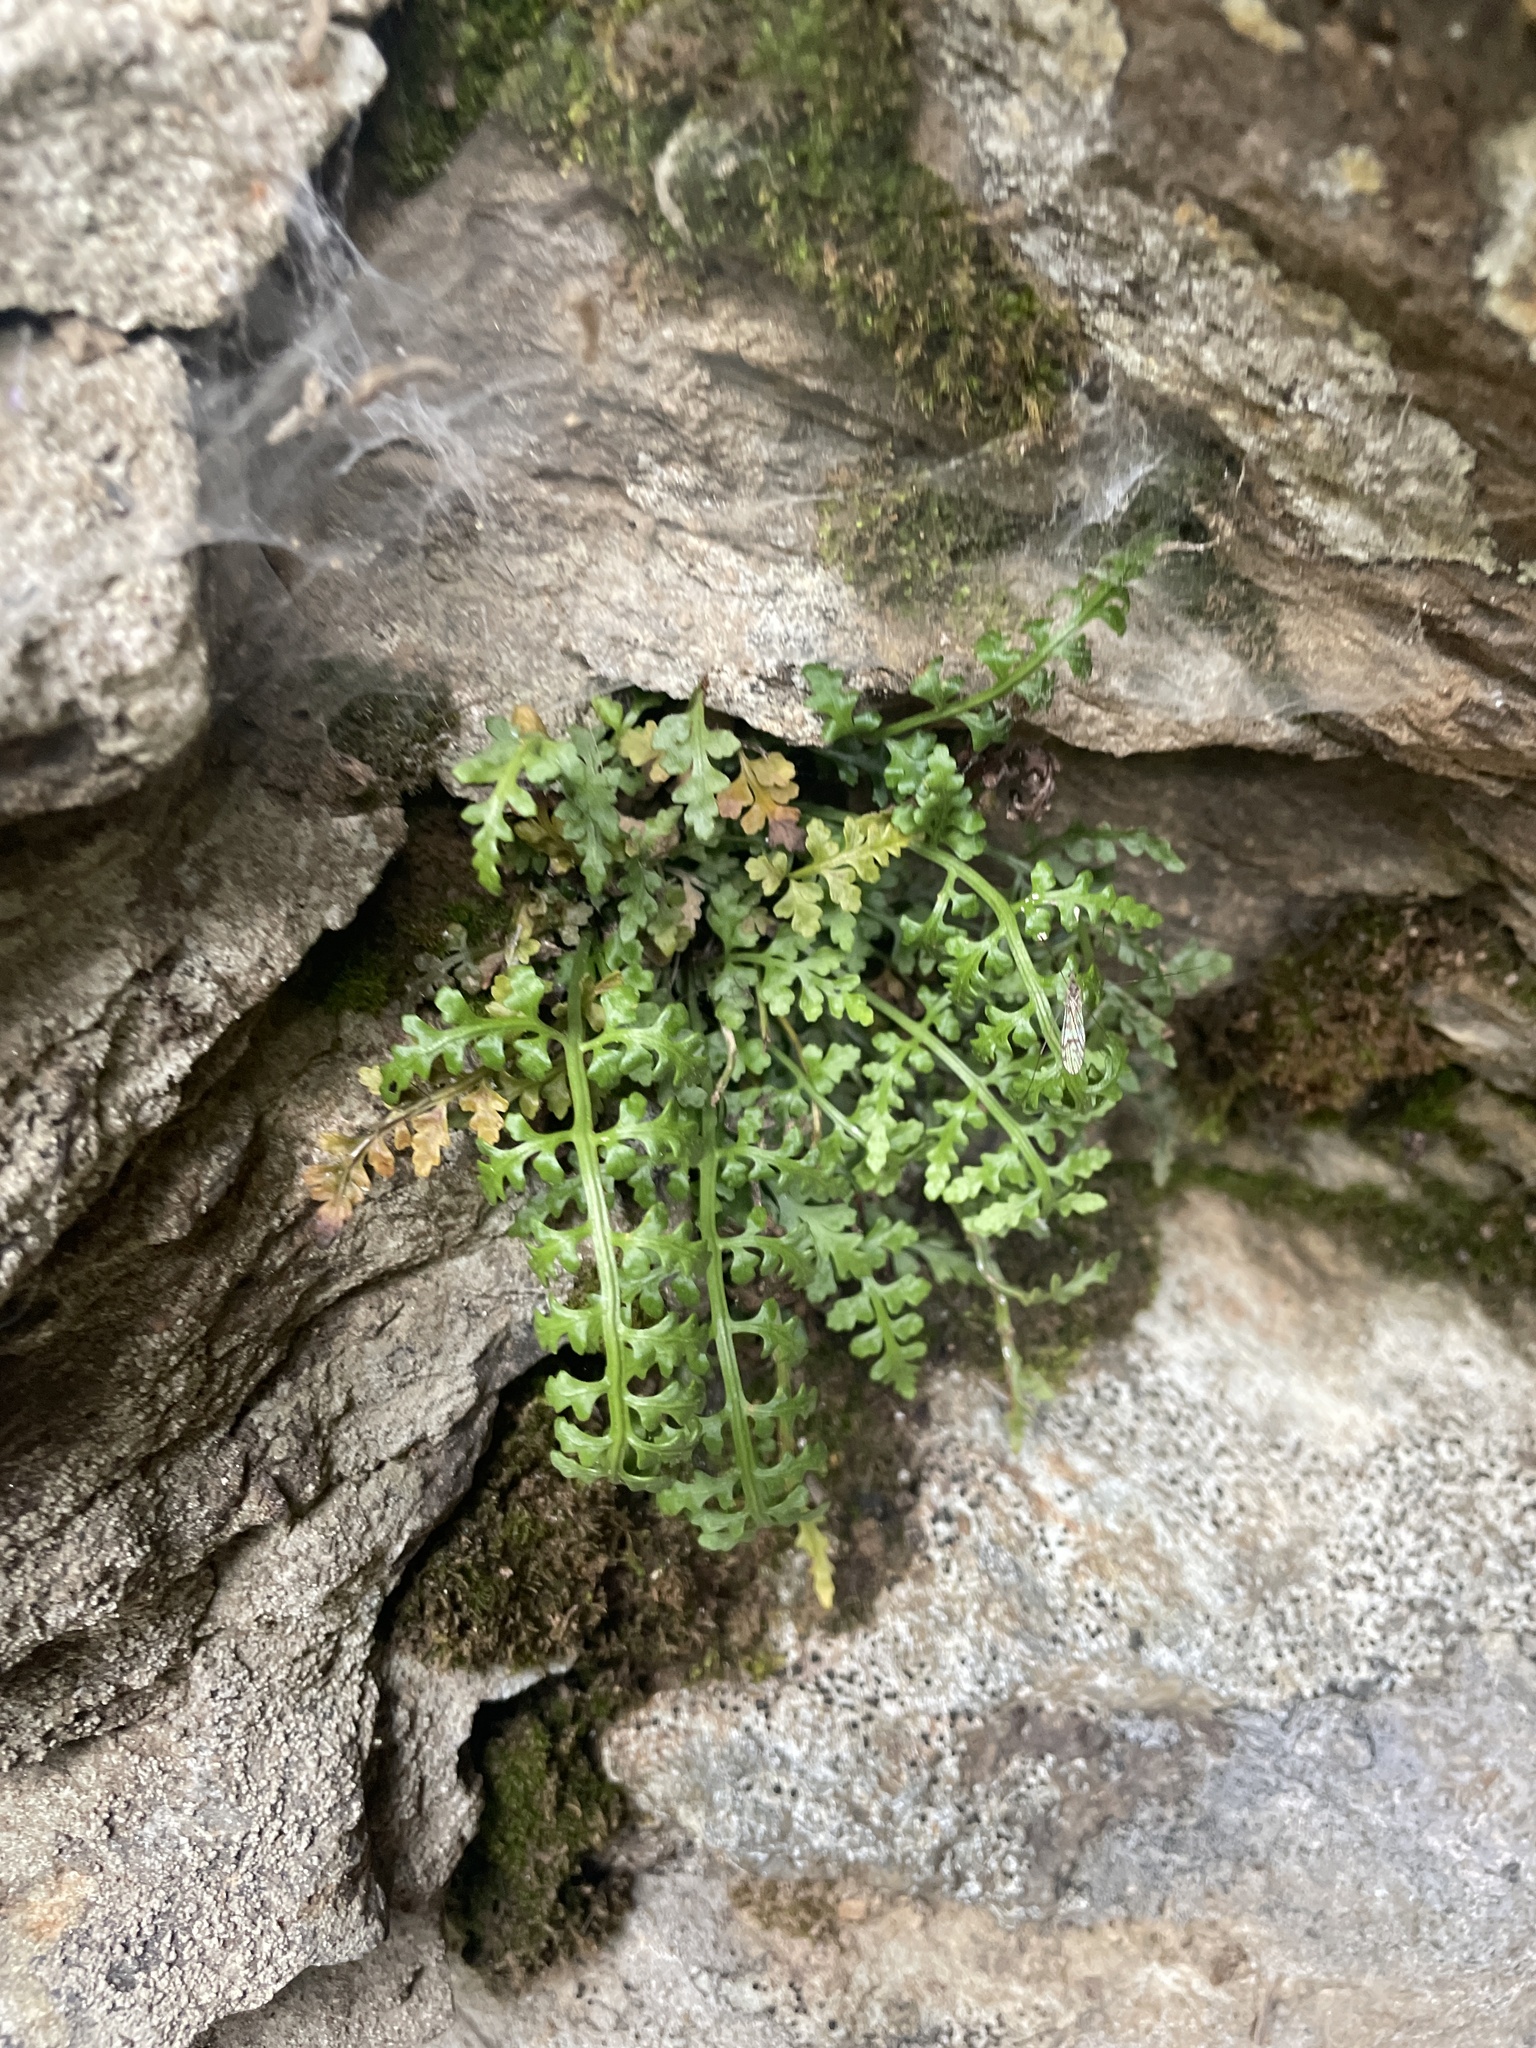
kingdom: Plantae
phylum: Tracheophyta
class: Polypodiopsida
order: Polypodiales
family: Aspleniaceae
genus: Asplenium
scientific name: Asplenium montanum
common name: Mountain spleenwort
